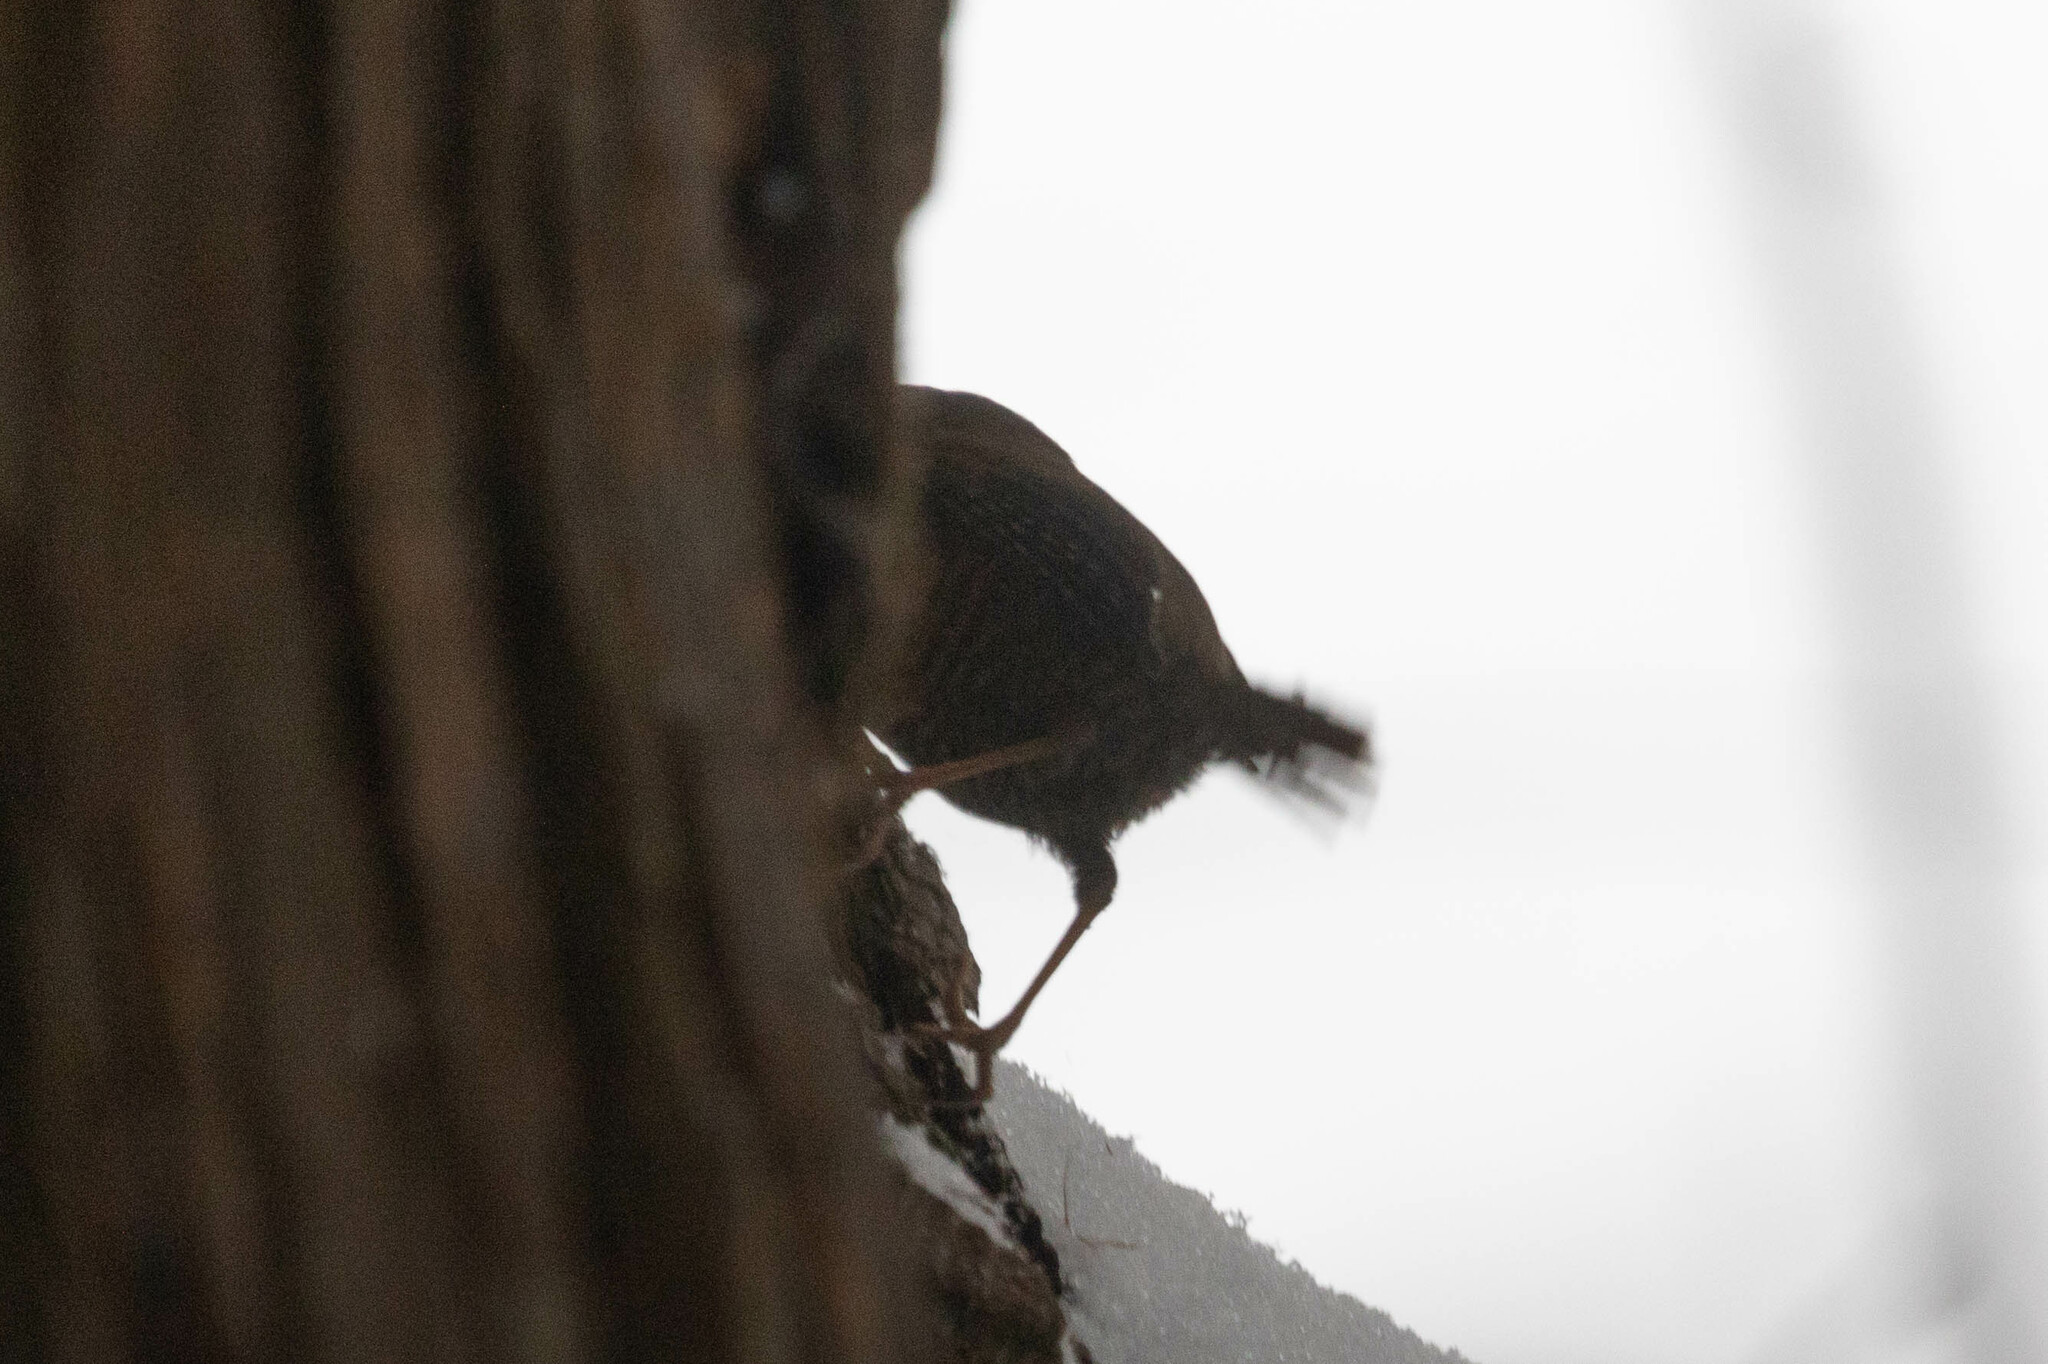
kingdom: Animalia
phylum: Chordata
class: Aves
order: Passeriformes
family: Troglodytidae
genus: Troglodytes
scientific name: Troglodytes pacificus
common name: Pacific wren
